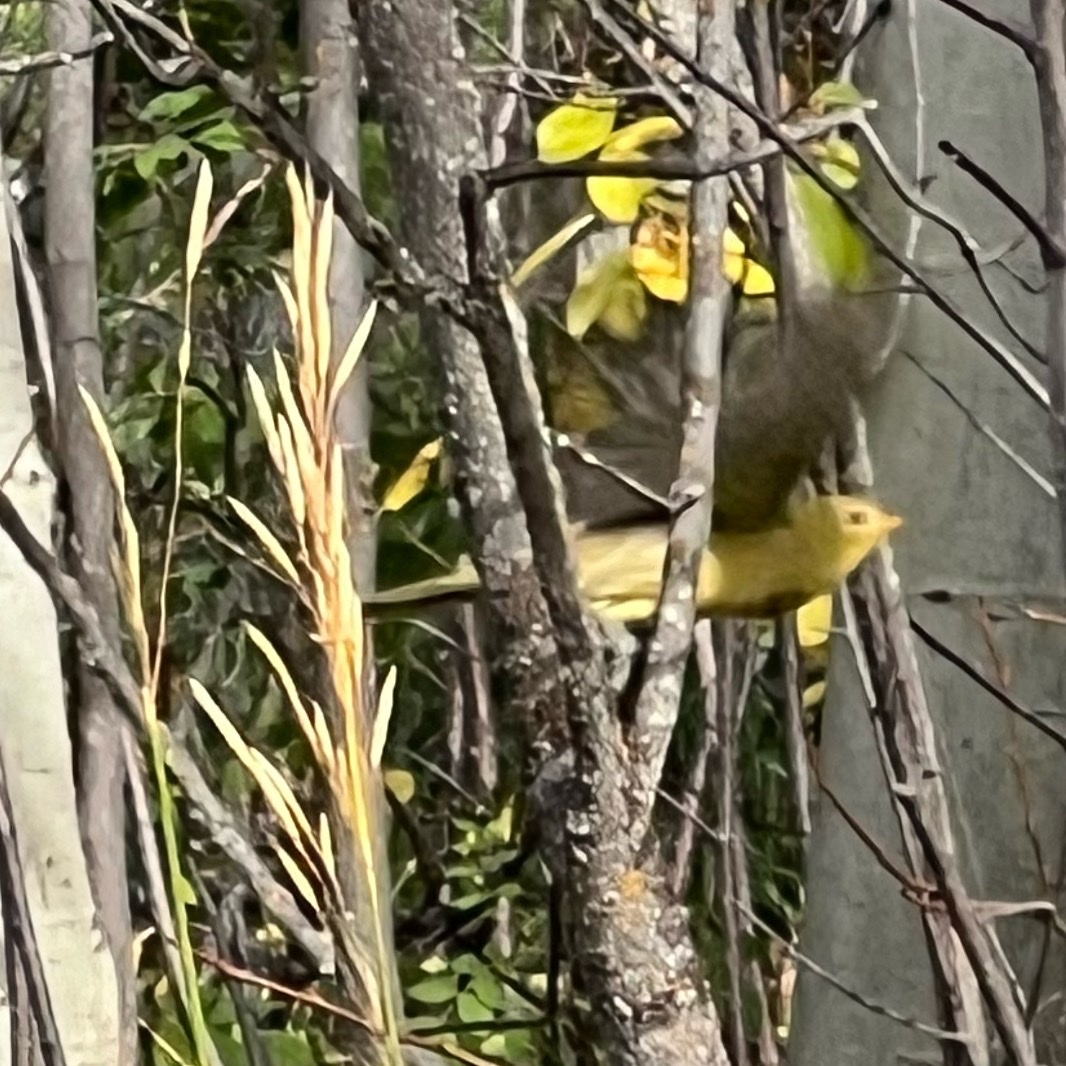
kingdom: Animalia
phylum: Chordata
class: Aves
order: Passeriformes
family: Cardinalidae
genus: Piranga
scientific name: Piranga ludoviciana
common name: Western tanager
